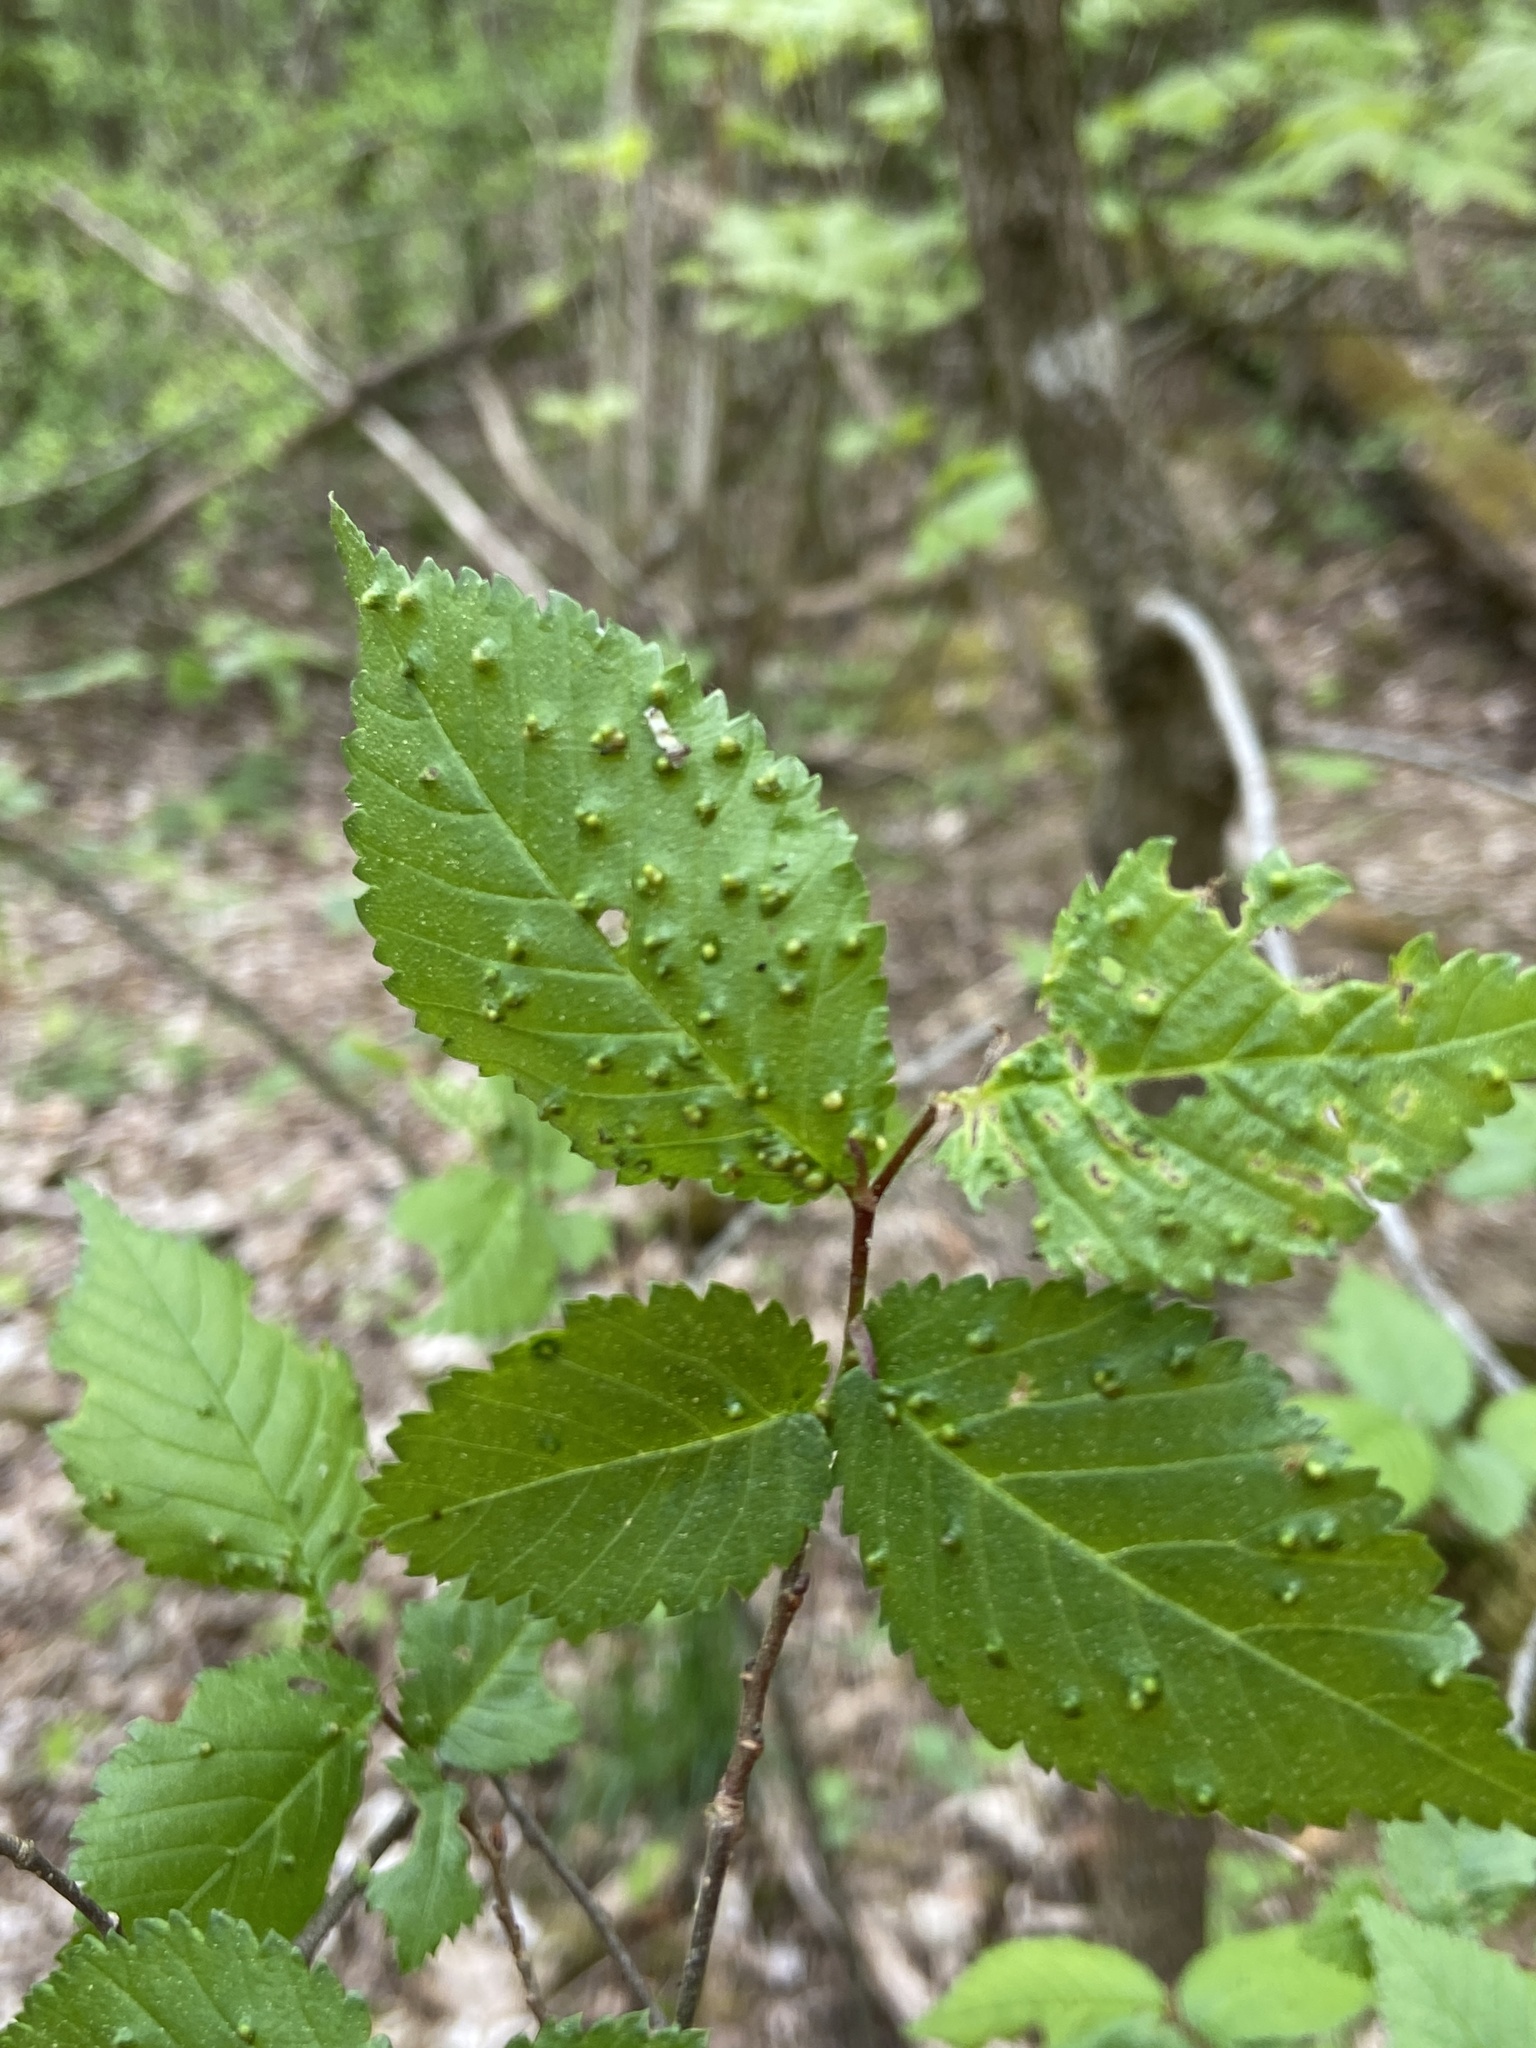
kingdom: Animalia
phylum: Arthropoda
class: Arachnida
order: Trombidiformes
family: Eriophyidae
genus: Aceria
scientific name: Aceria brevipunctata
